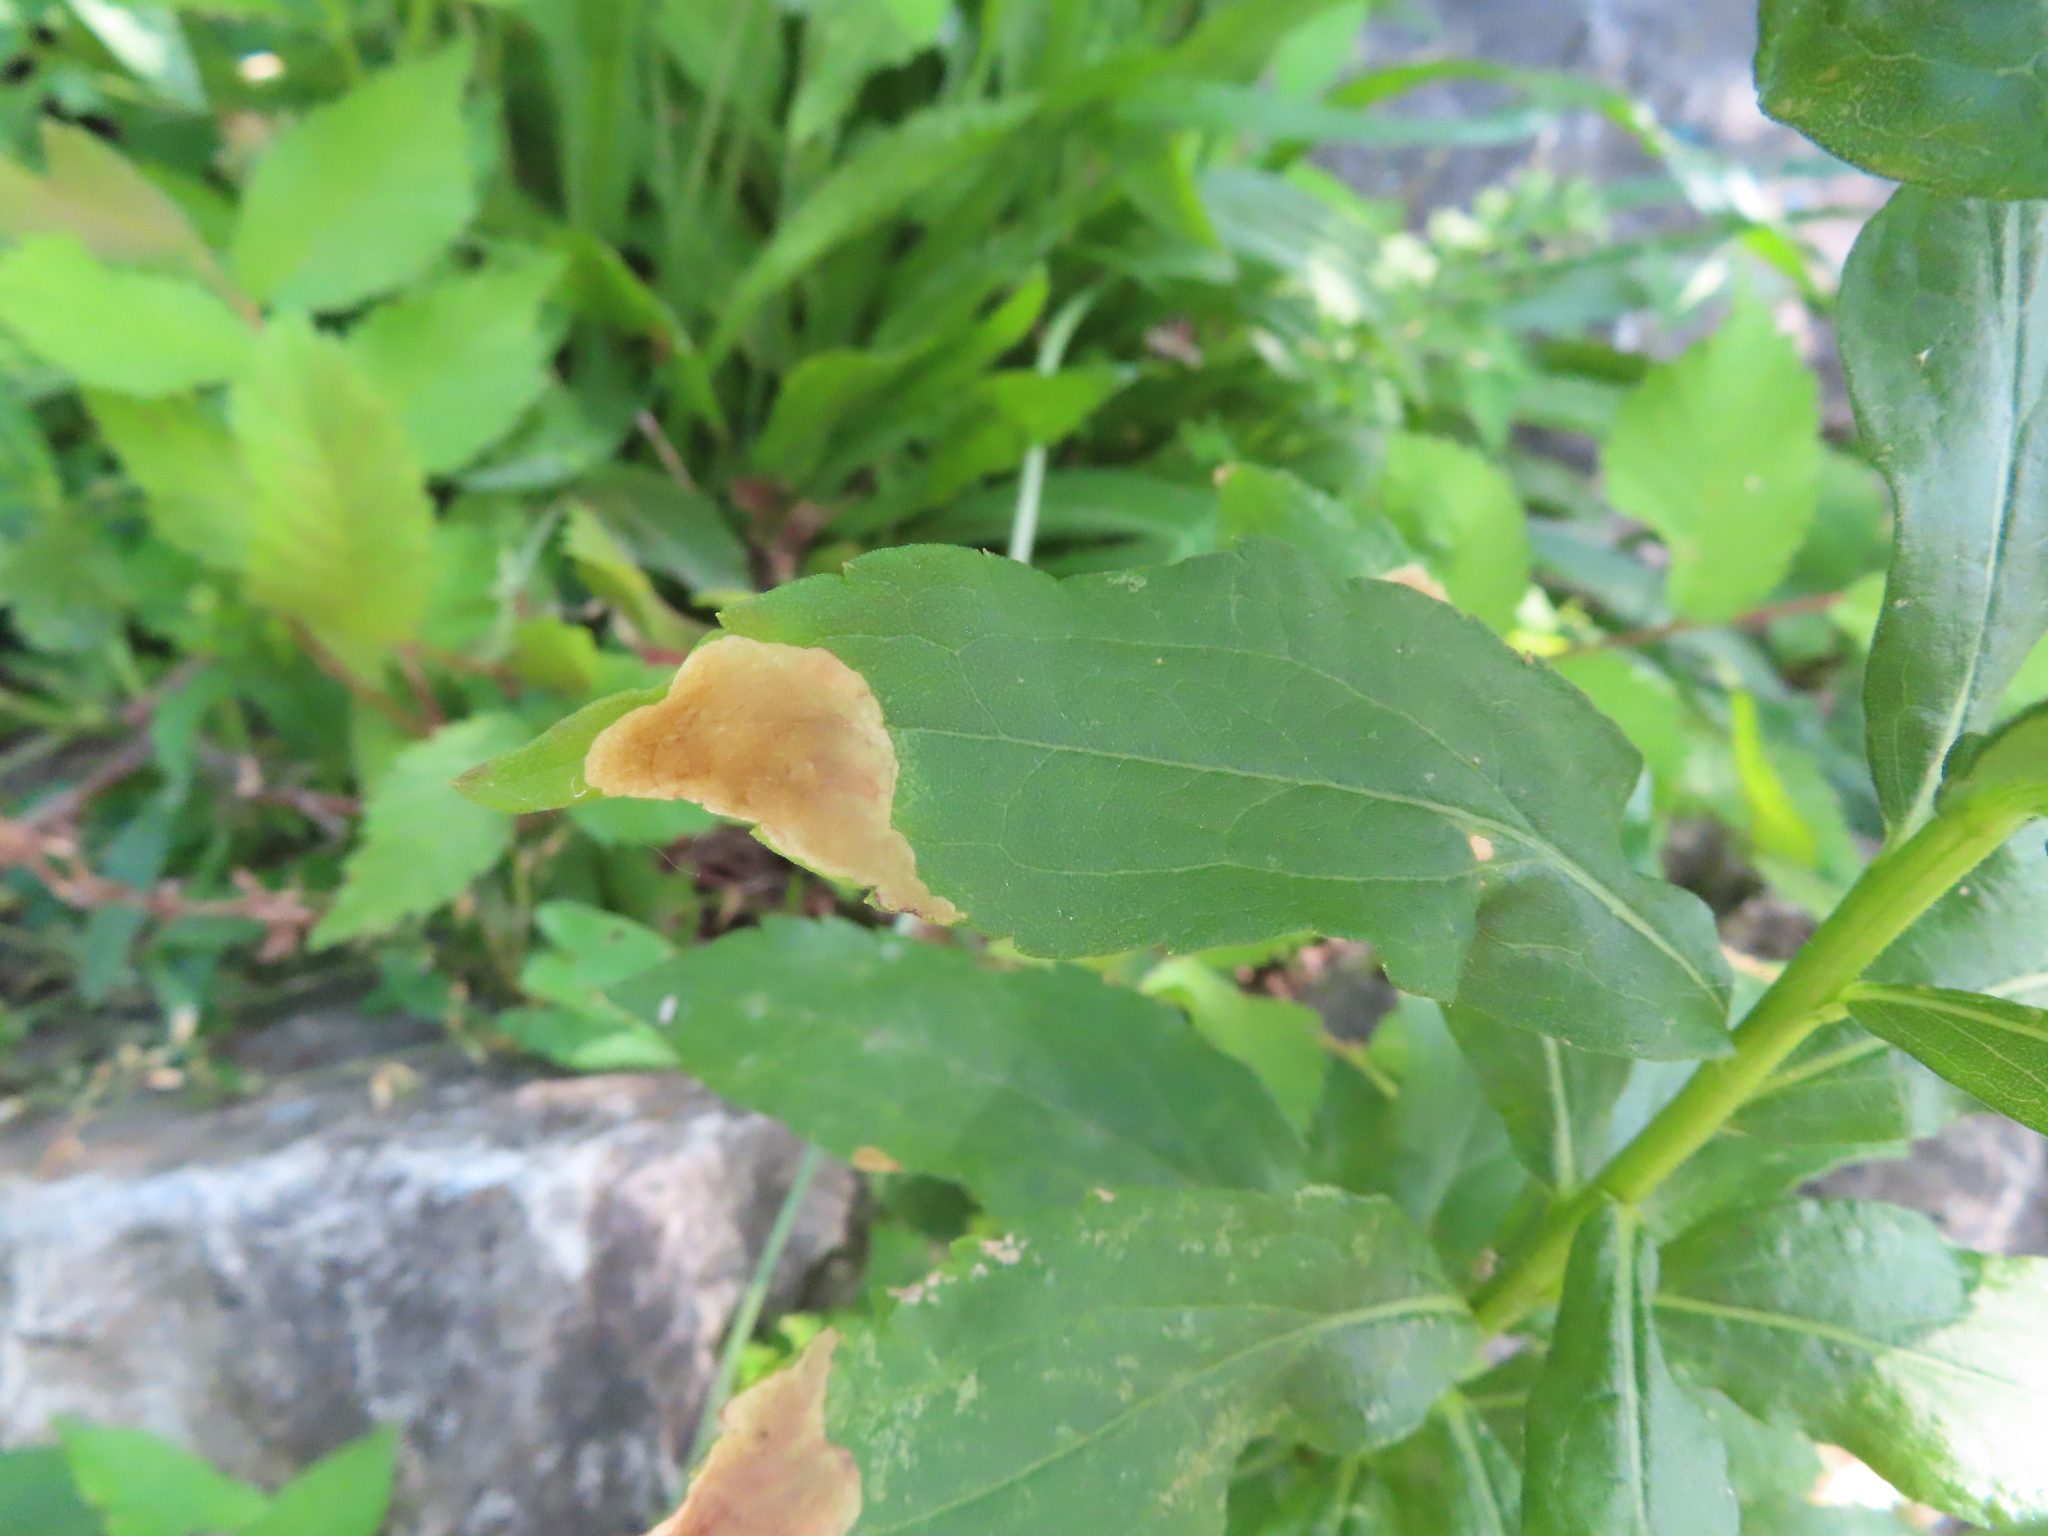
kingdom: Animalia
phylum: Arthropoda
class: Insecta
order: Diptera
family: Agromyzidae
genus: Nemorimyza
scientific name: Nemorimyza posticata
